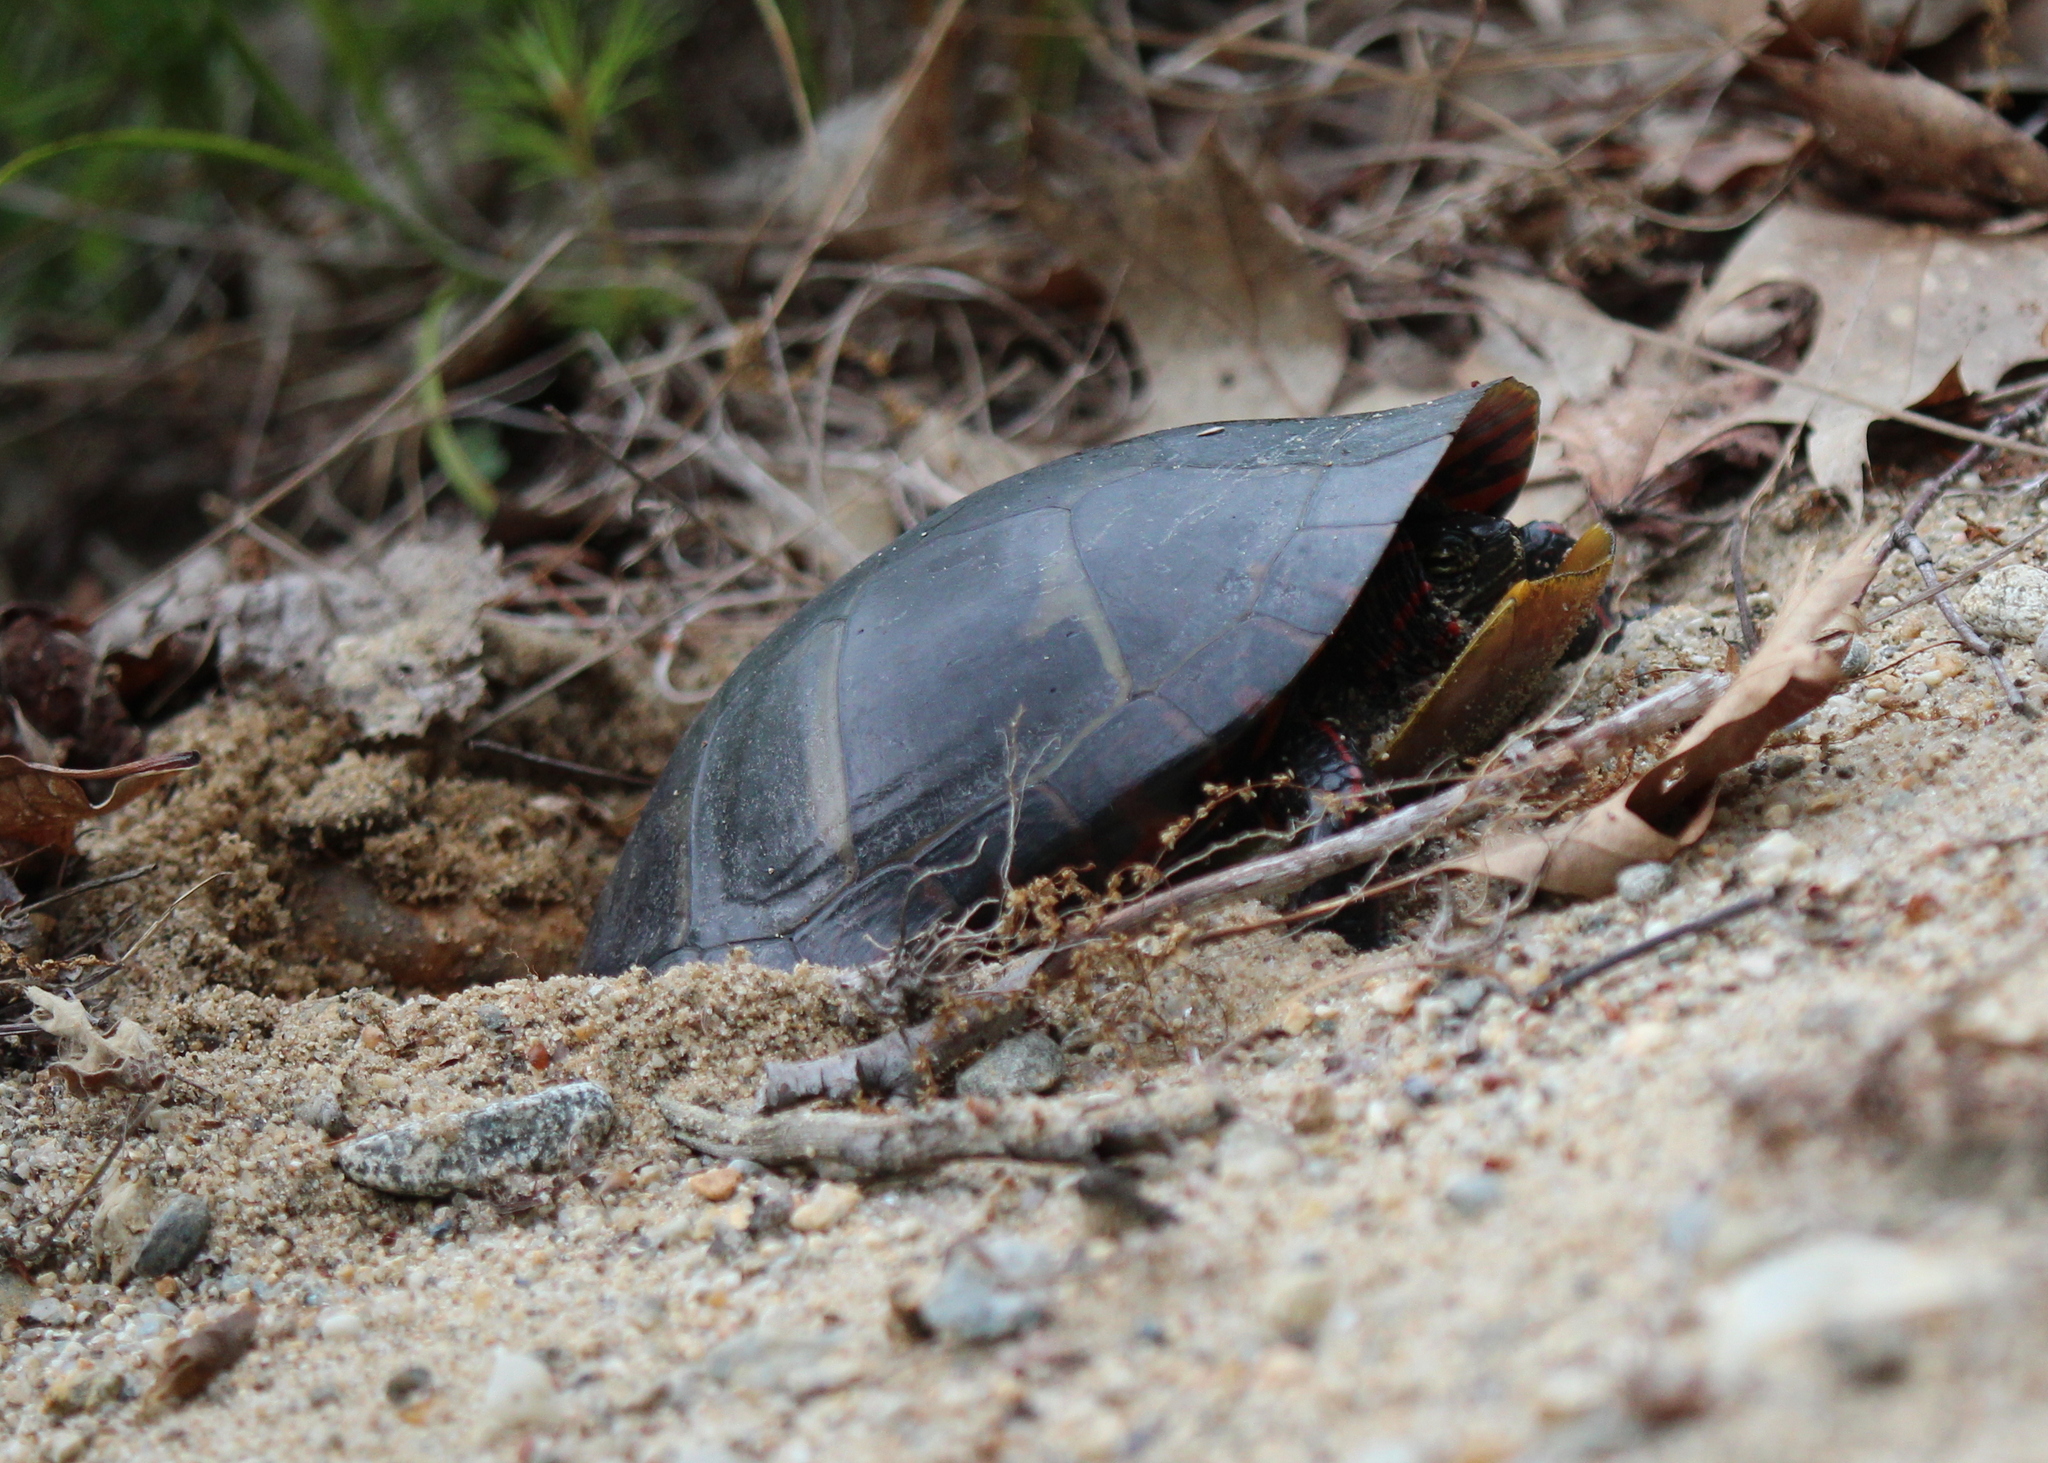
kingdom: Animalia
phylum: Chordata
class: Testudines
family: Emydidae
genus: Chrysemys
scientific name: Chrysemys picta
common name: Painted turtle
